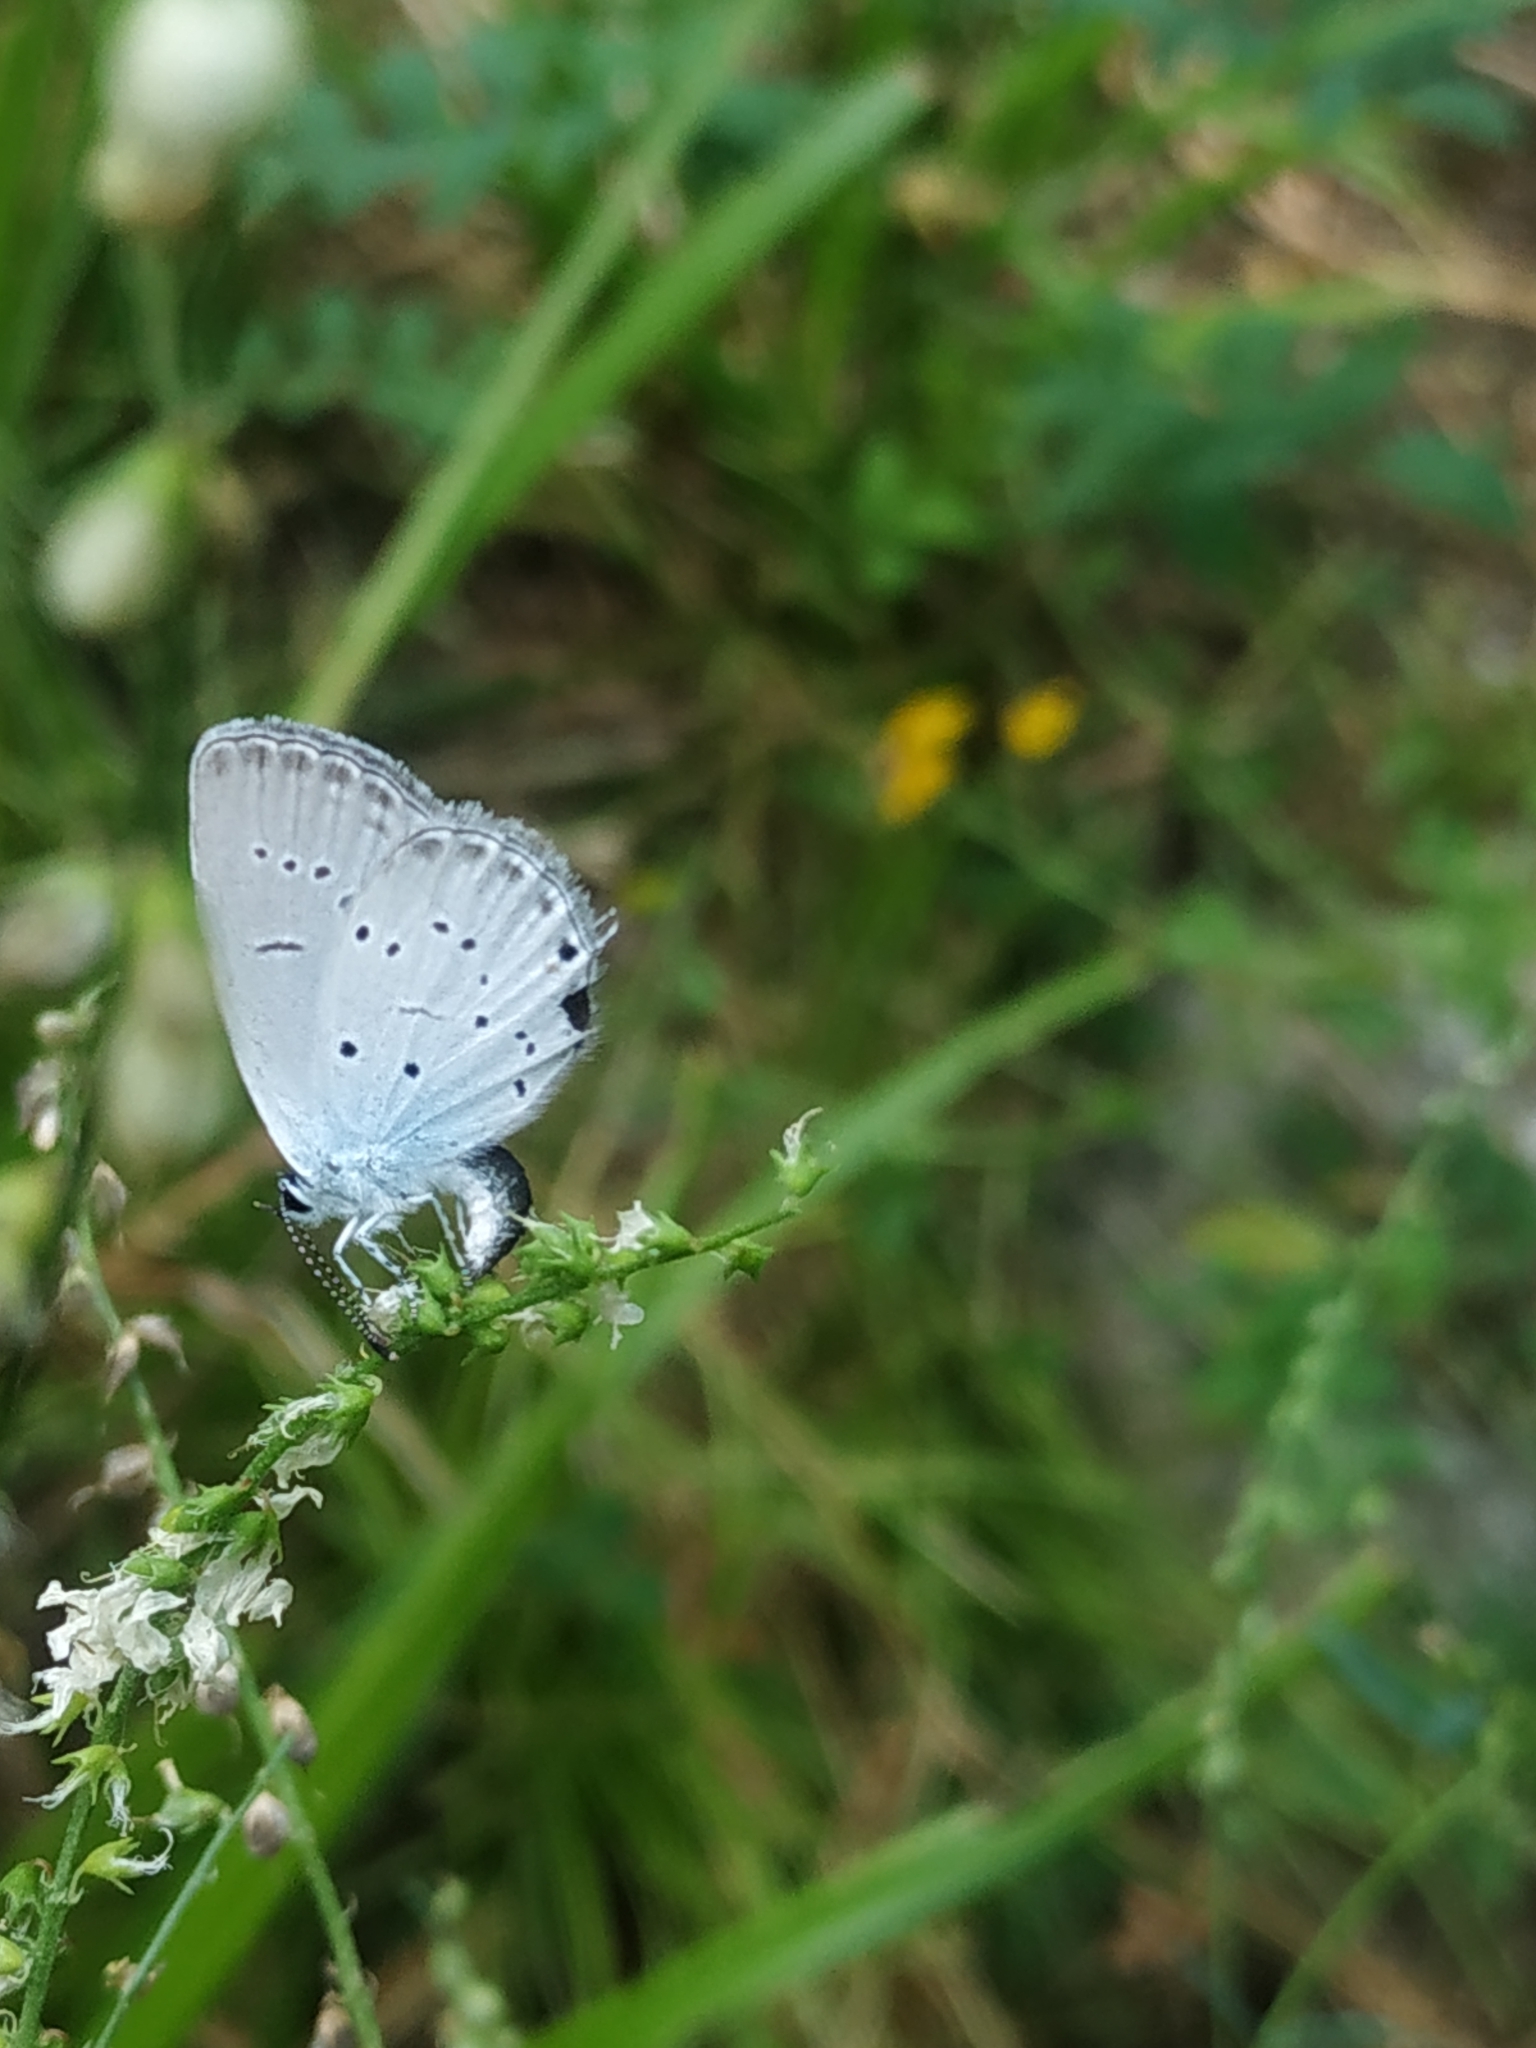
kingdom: Animalia
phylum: Arthropoda
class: Insecta
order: Lepidoptera
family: Lycaenidae
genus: Elkalyce
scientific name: Elkalyce alcetas
